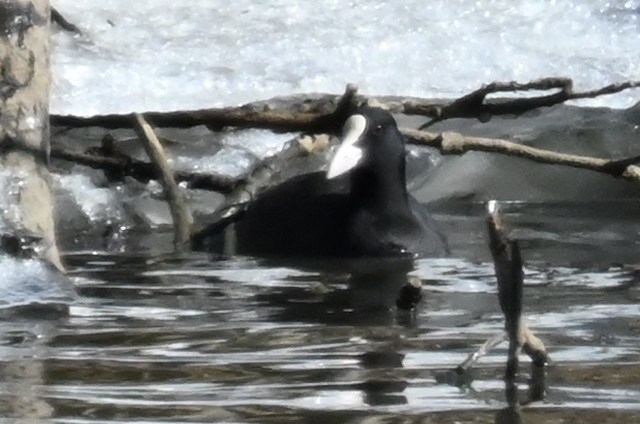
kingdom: Animalia
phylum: Chordata
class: Aves
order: Gruiformes
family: Rallidae
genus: Fulica
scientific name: Fulica atra
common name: Eurasian coot
